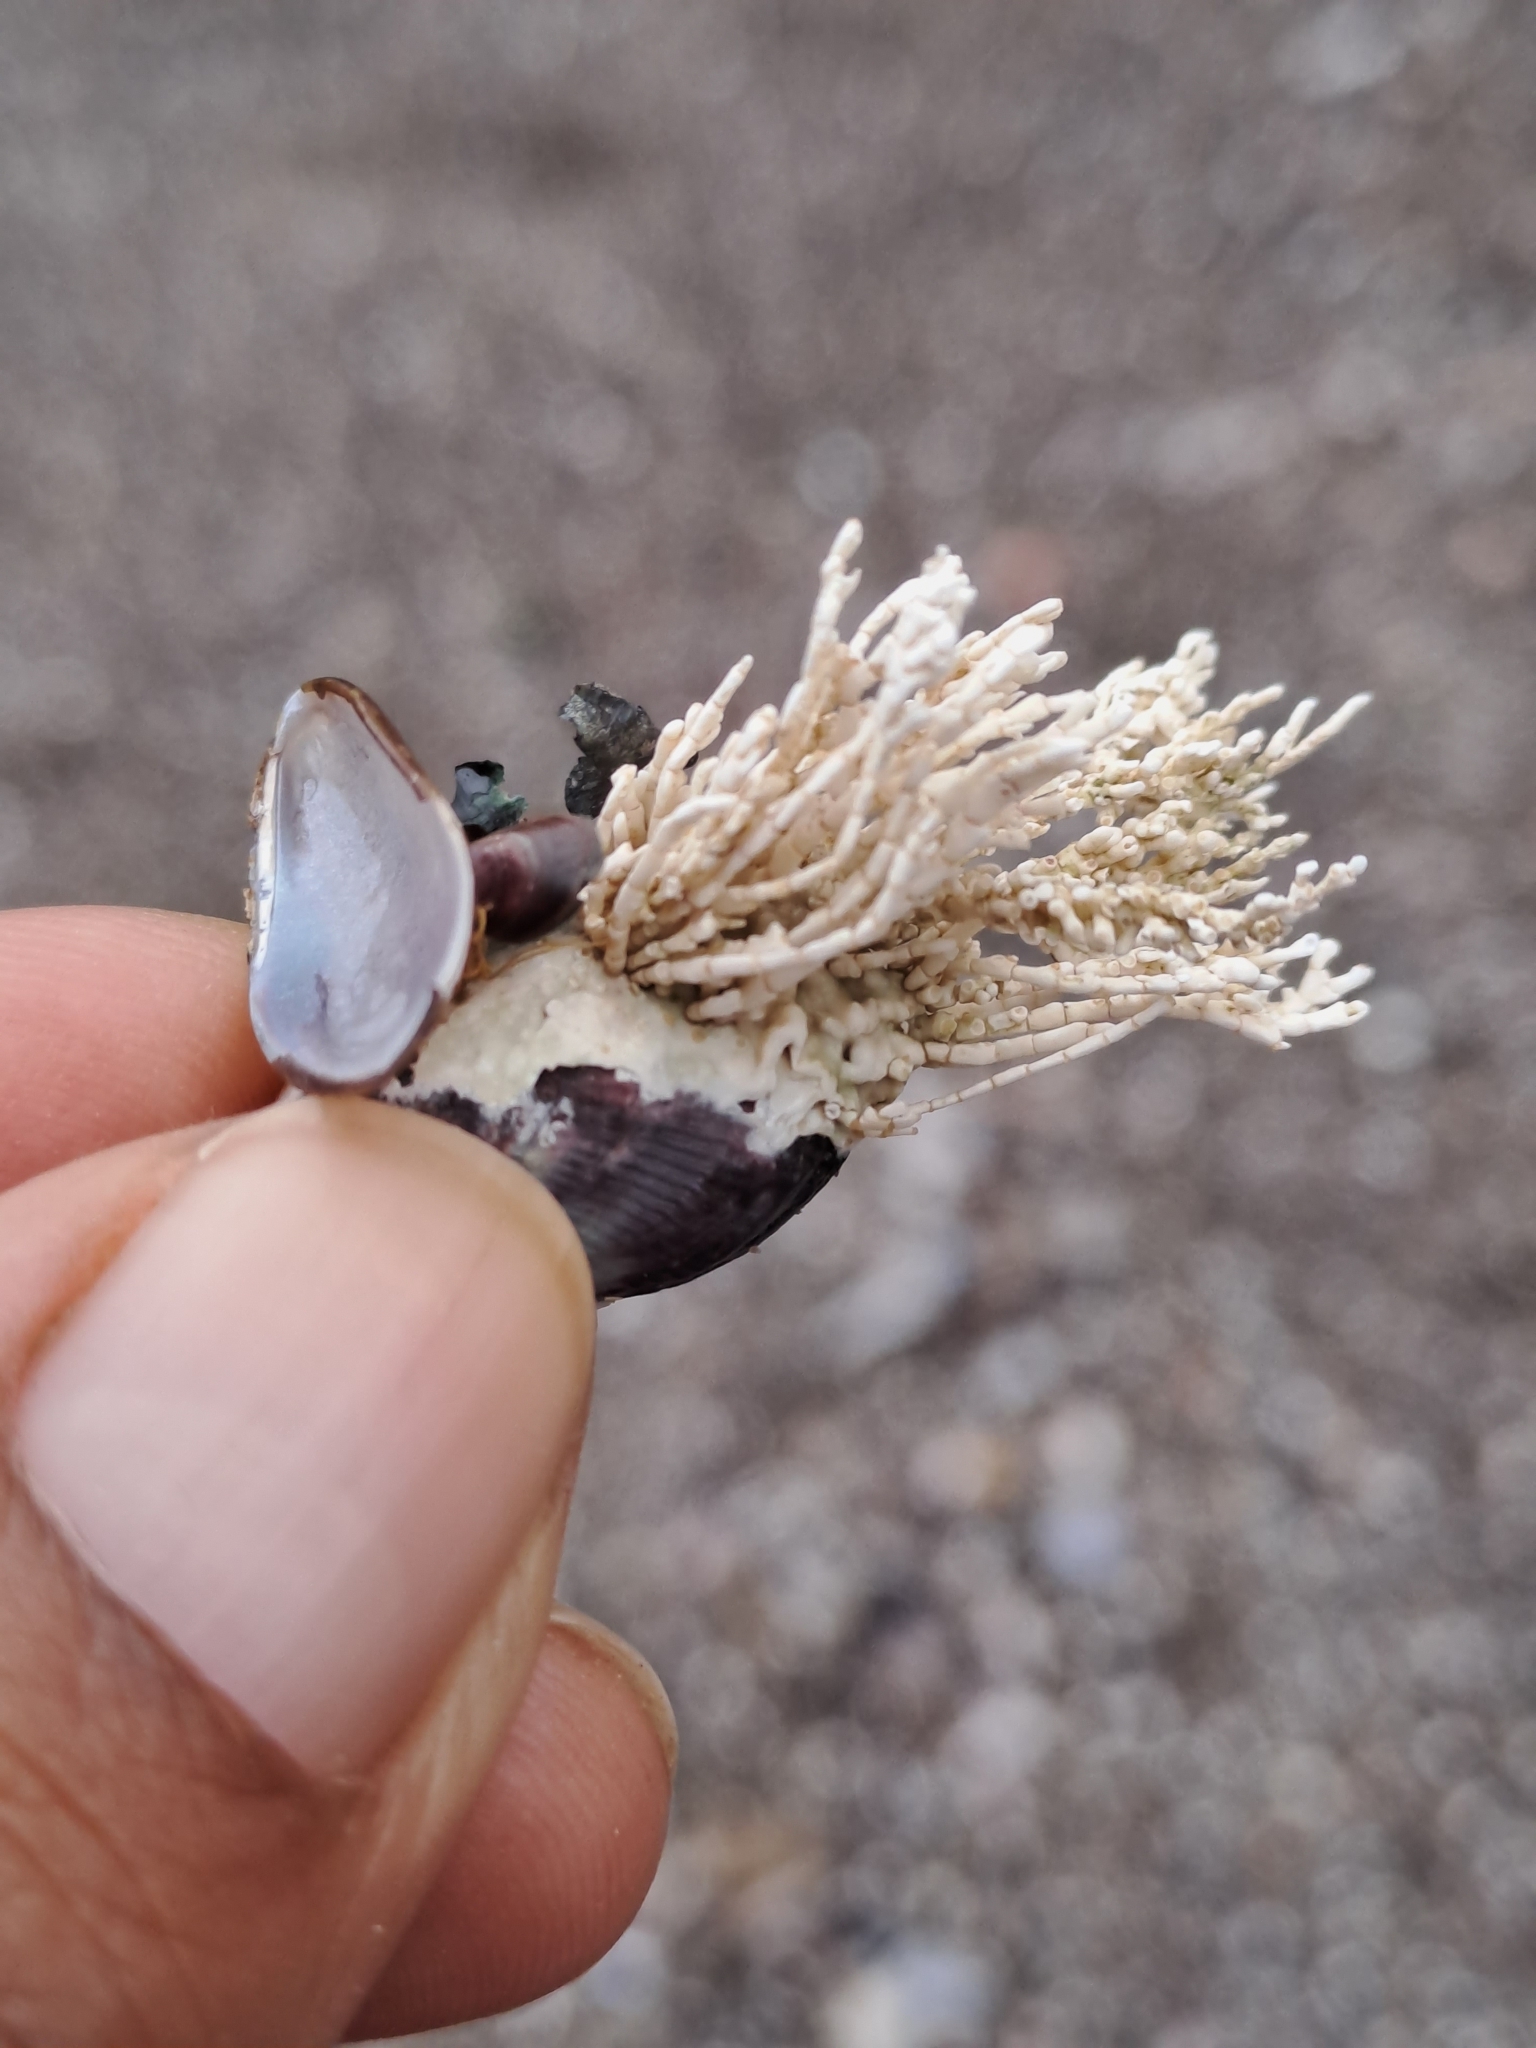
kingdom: Plantae
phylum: Rhodophyta
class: Florideophyceae
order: Corallinales
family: Corallinaceae
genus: Corallina
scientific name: Corallina officinalis
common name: Coral weed
